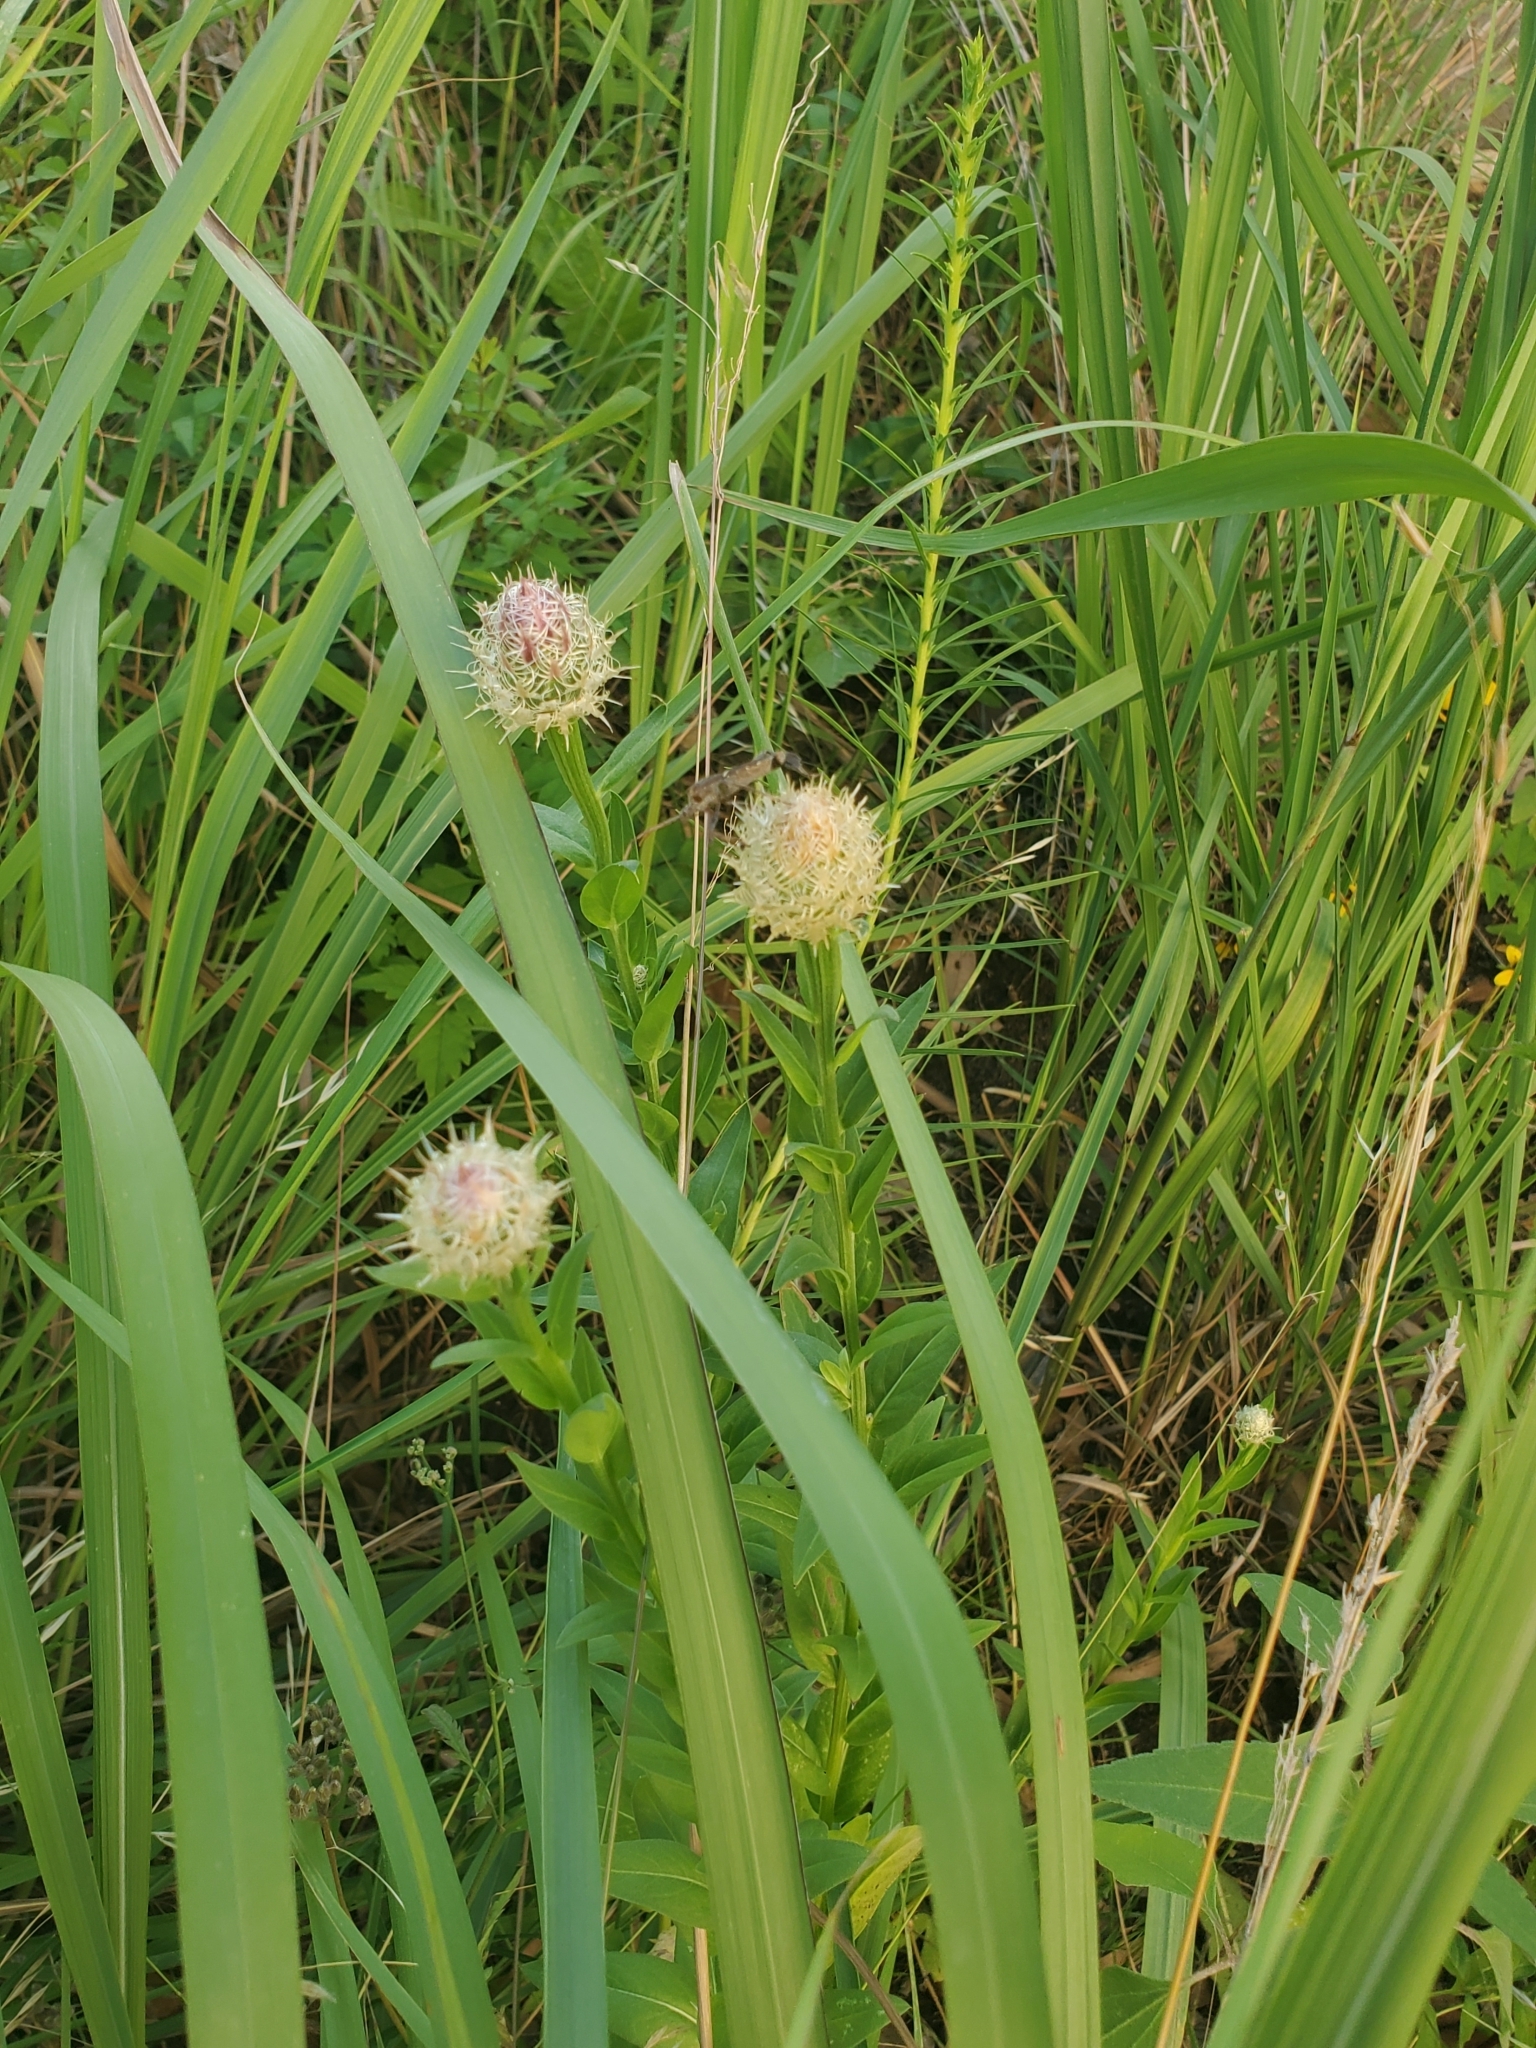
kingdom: Plantae
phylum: Tracheophyta
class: Magnoliopsida
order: Asterales
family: Asteraceae
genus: Plectocephalus
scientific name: Plectocephalus americanus
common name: American basket-flower
